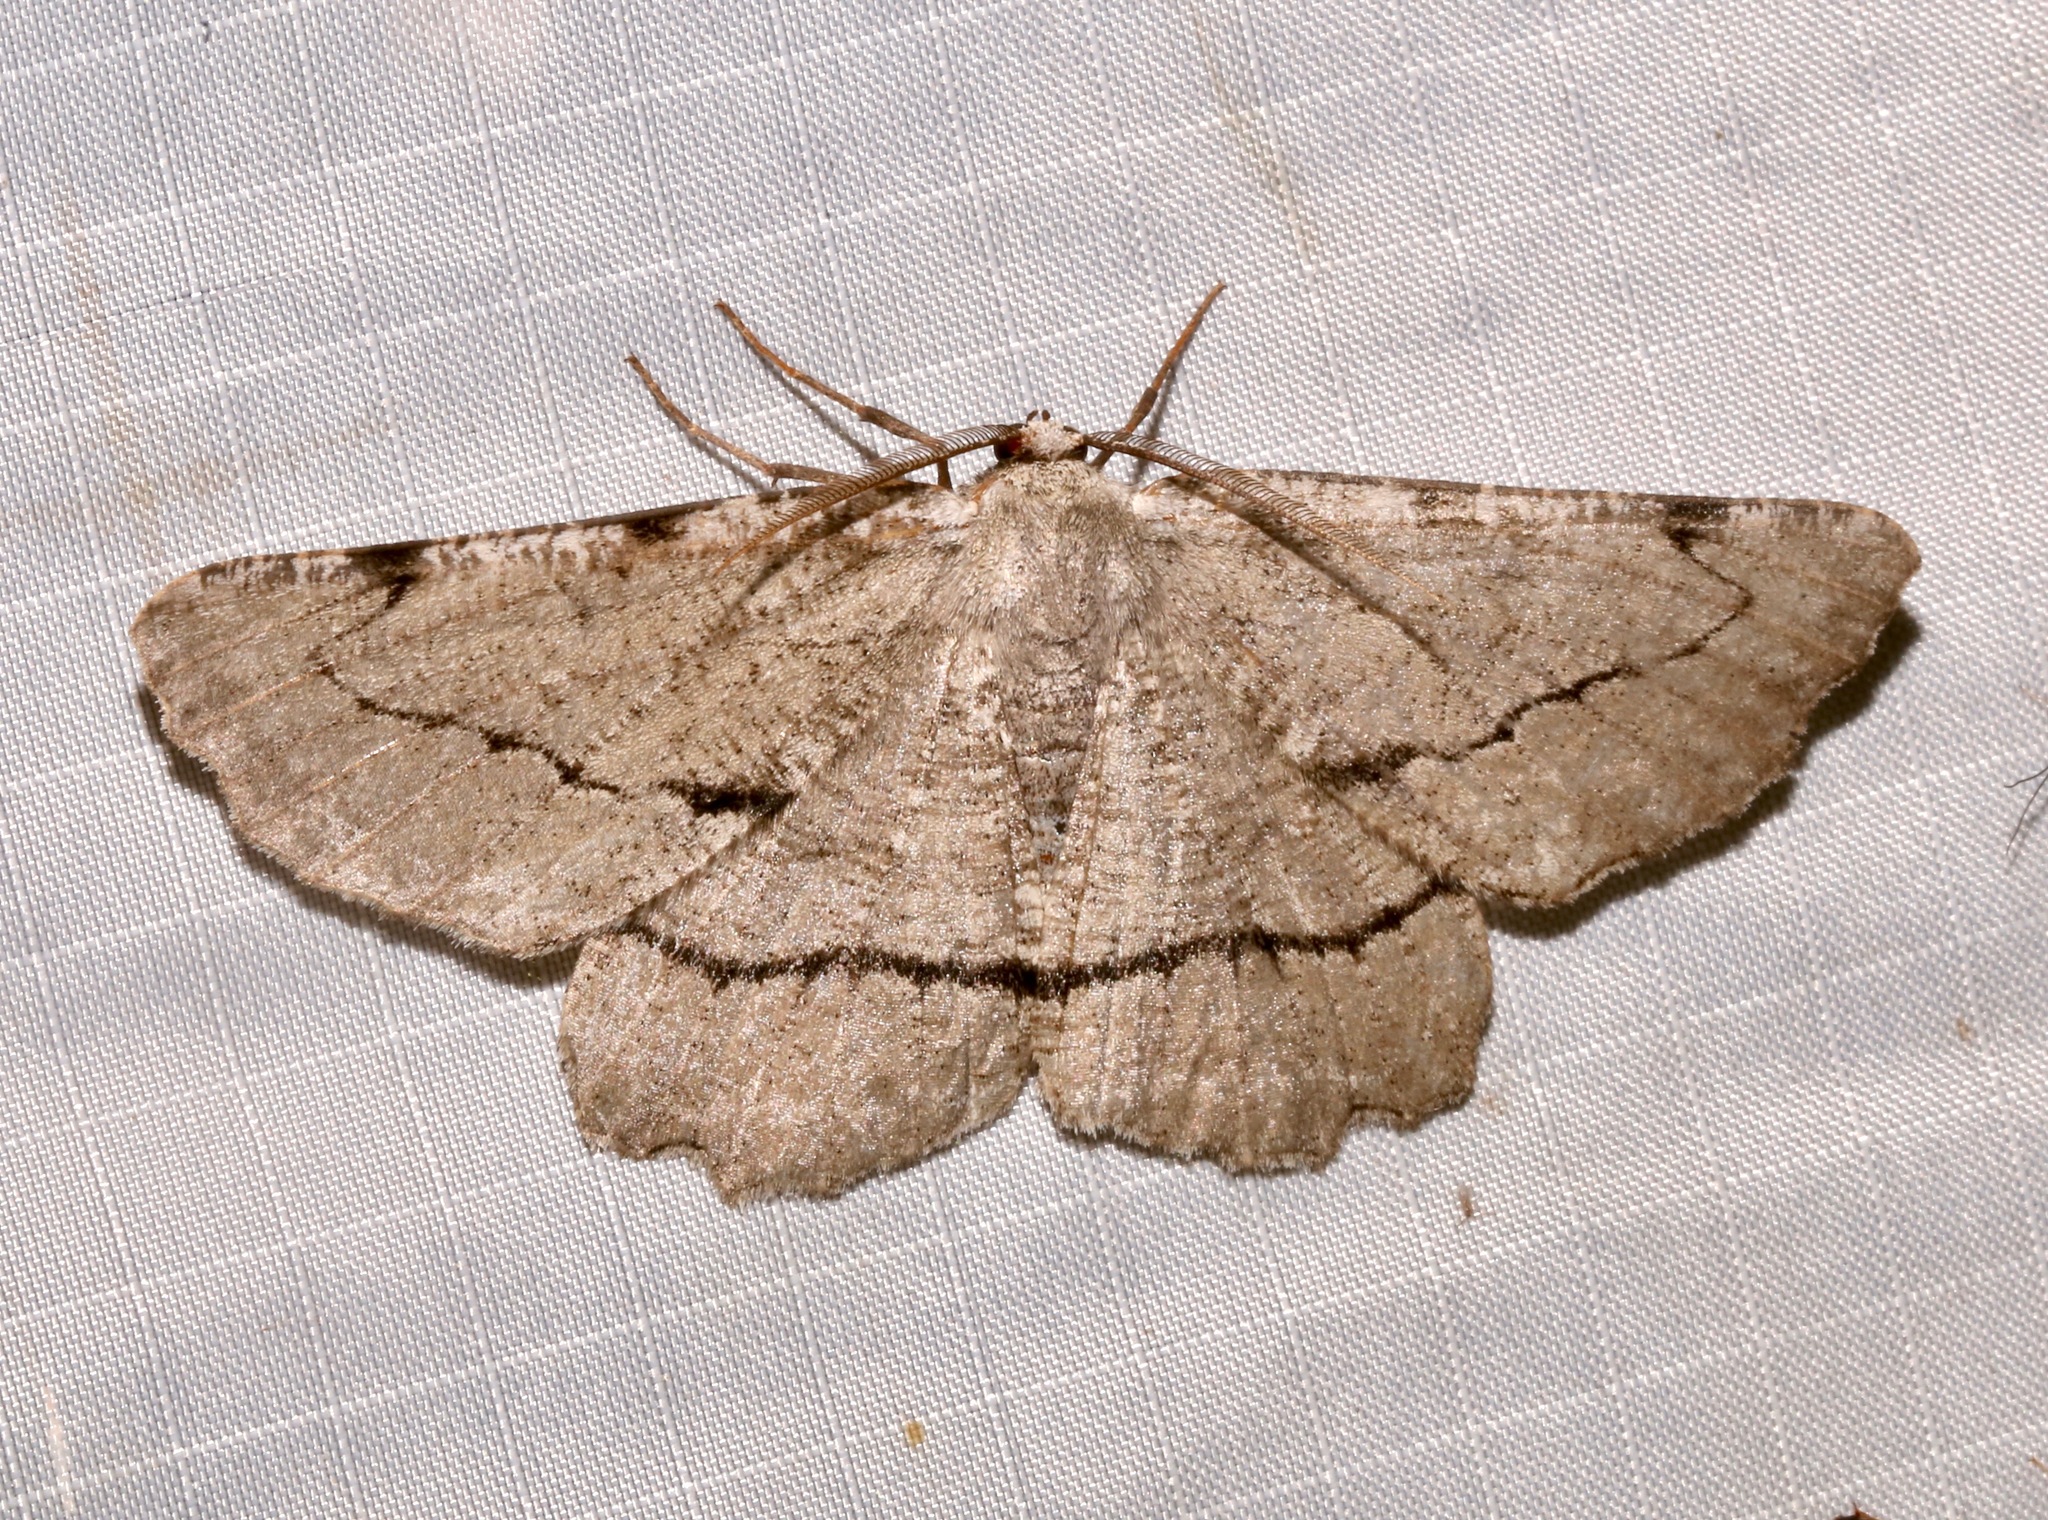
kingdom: Animalia
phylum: Arthropoda
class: Insecta
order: Lepidoptera
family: Geometridae
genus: Lytrosis
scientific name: Lytrosis permagnaria
